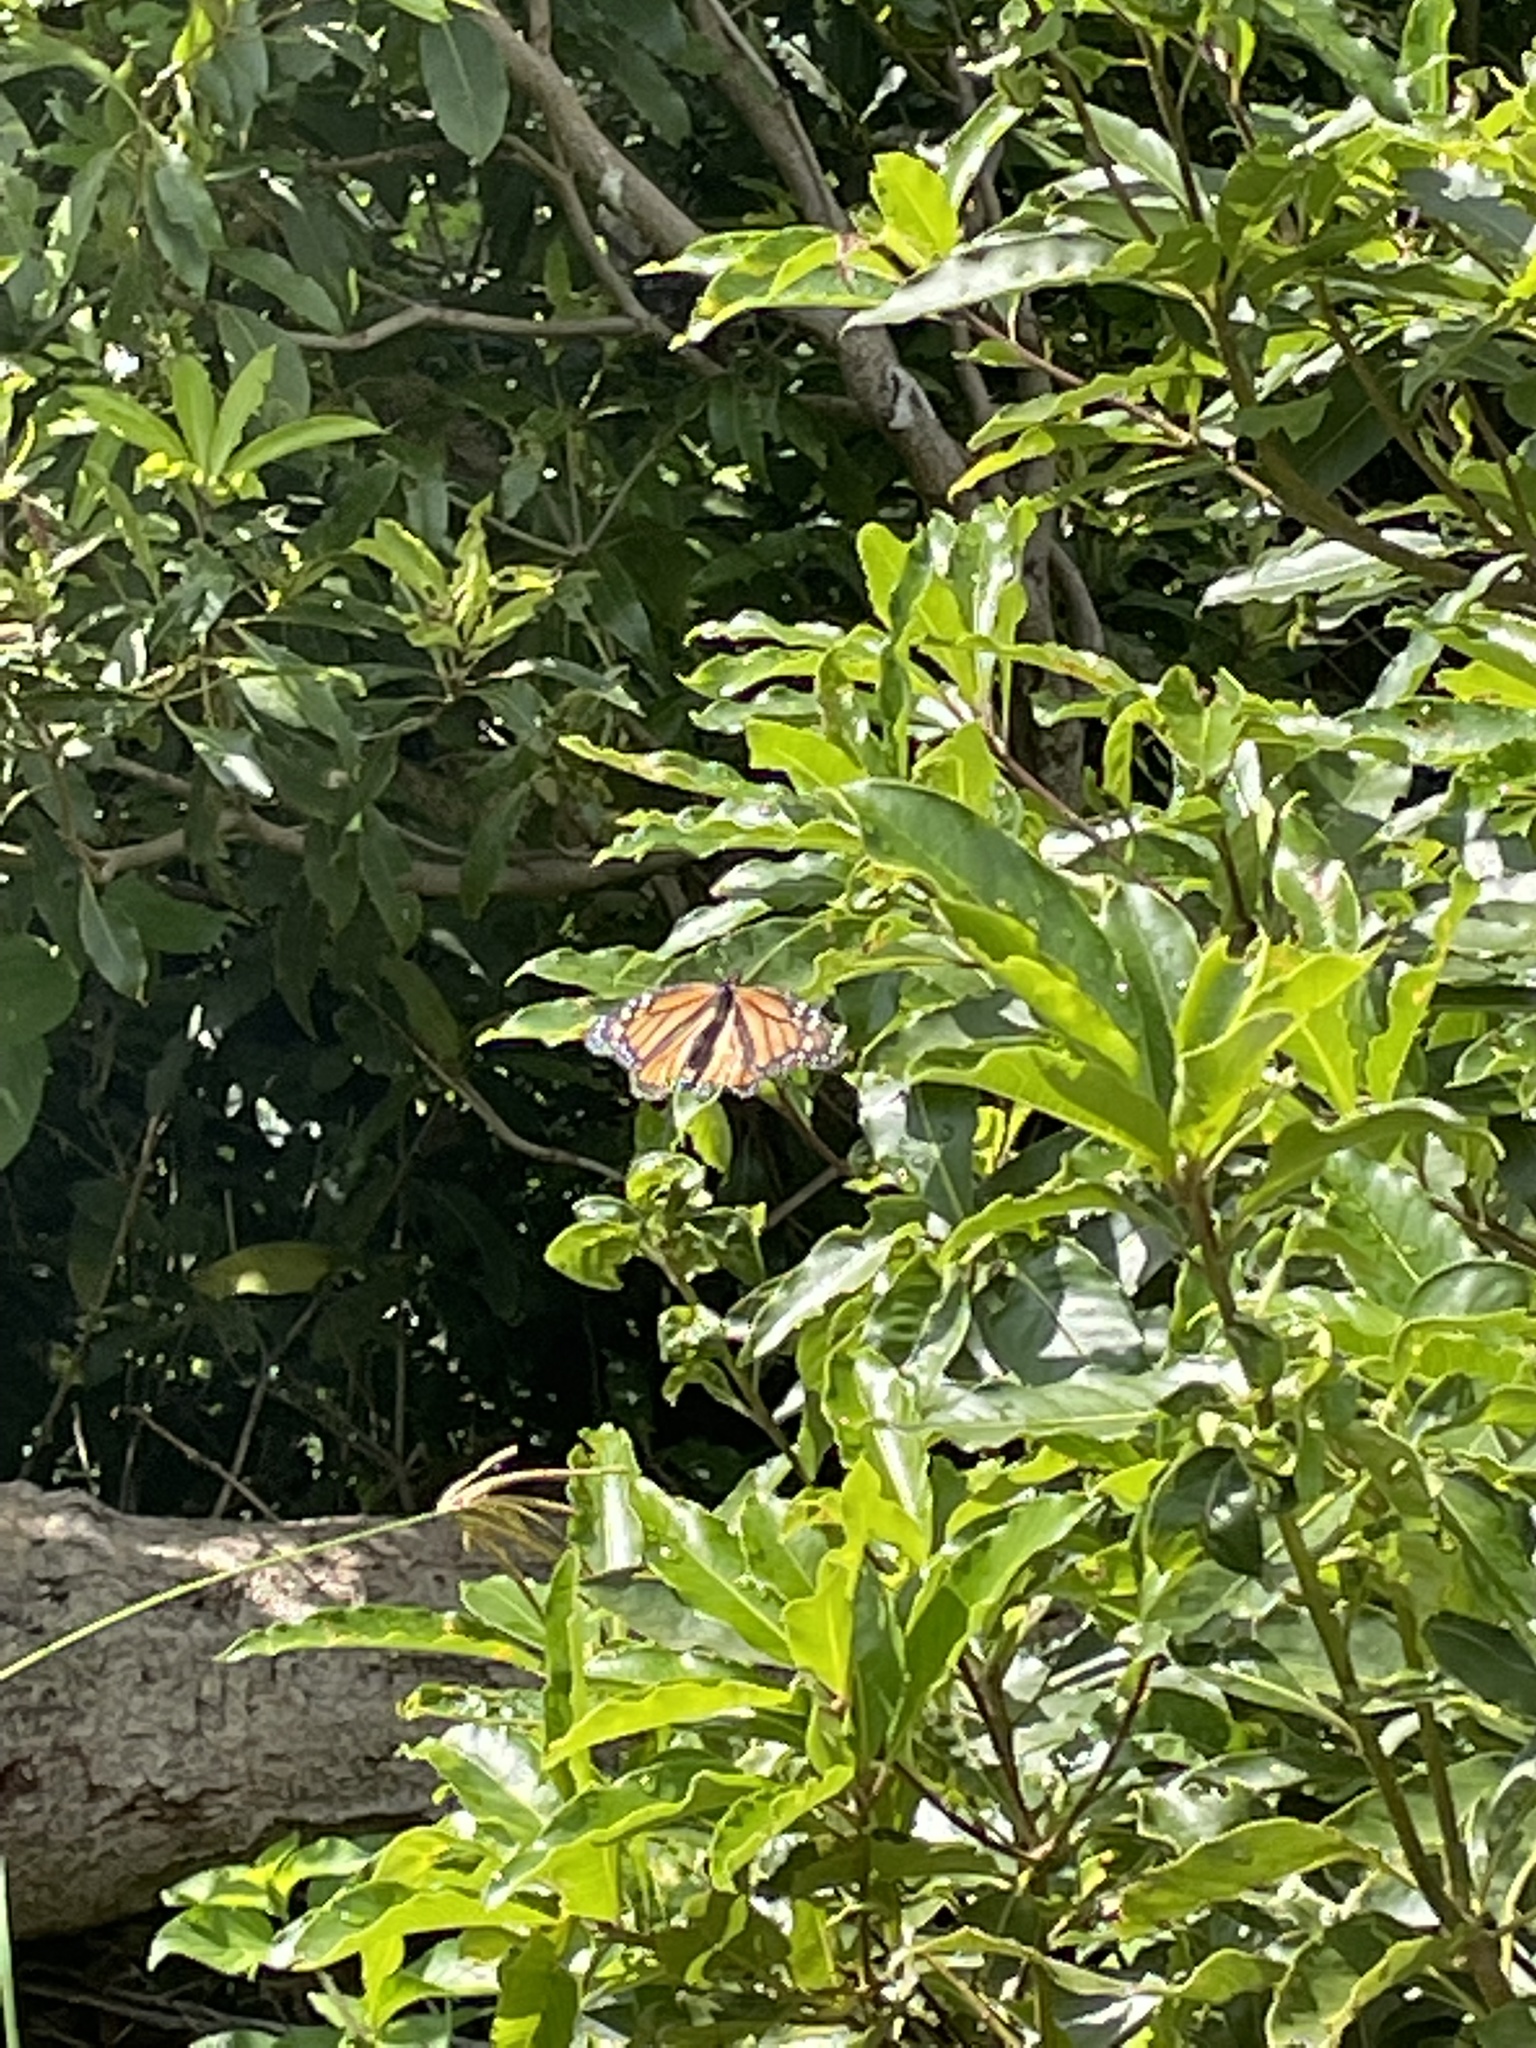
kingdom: Animalia
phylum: Arthropoda
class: Insecta
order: Lepidoptera
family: Nymphalidae
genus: Danaus
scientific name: Danaus plexippus
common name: Monarch
